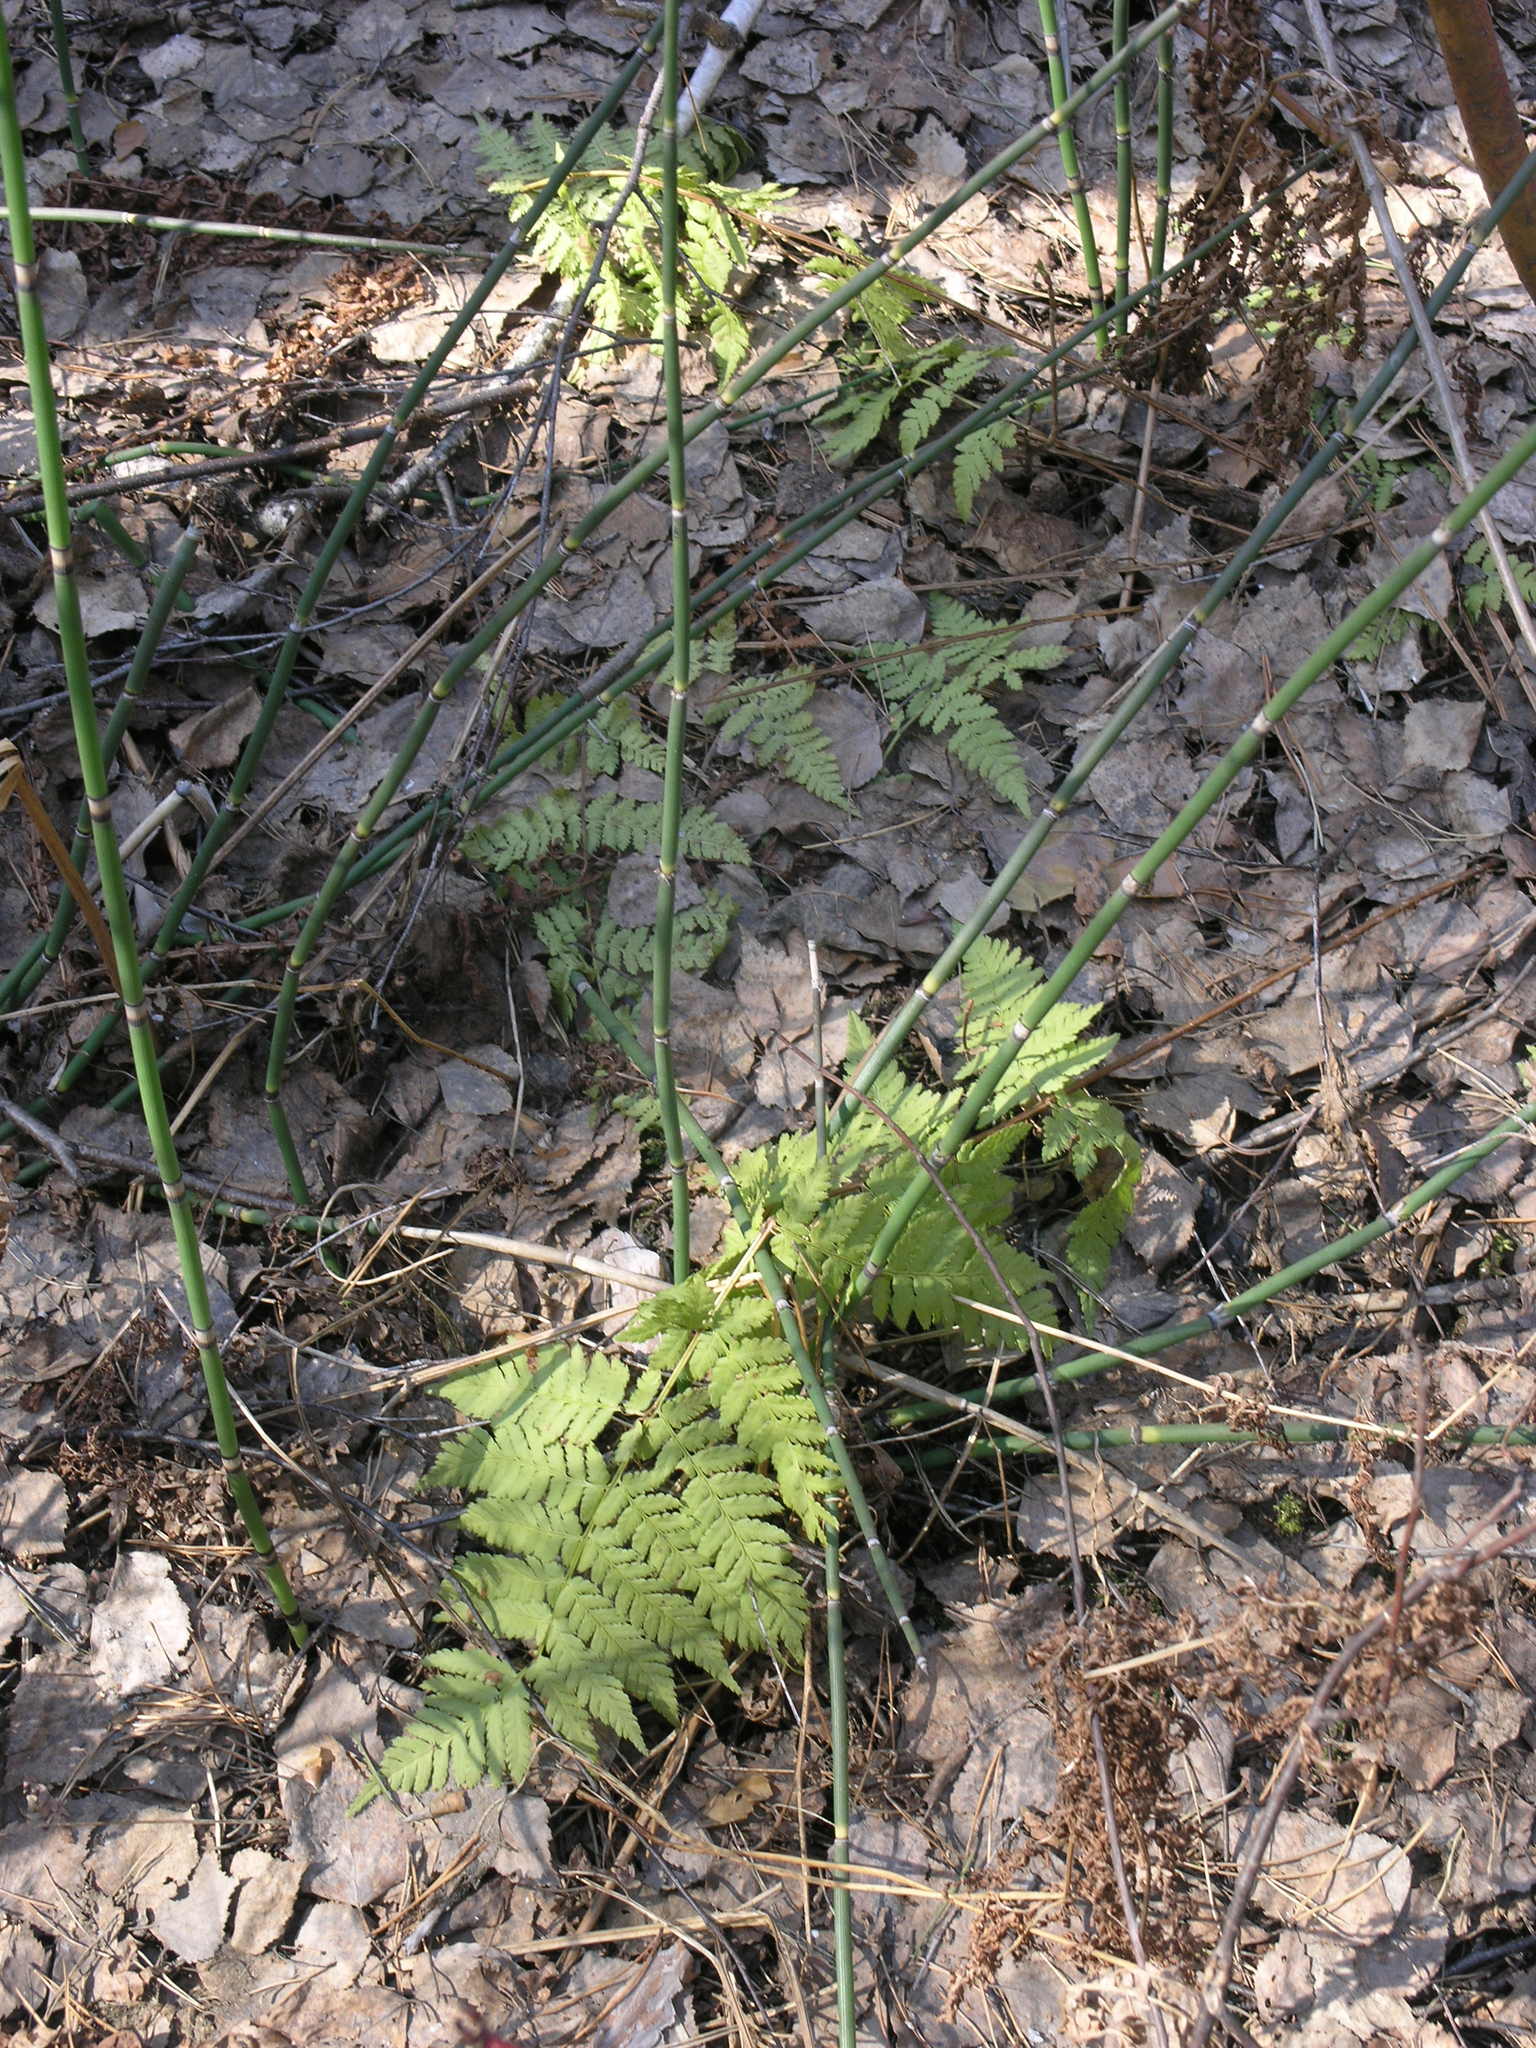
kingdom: Plantae
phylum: Tracheophyta
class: Polypodiopsida
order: Polypodiales
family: Dryopteridaceae
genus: Dryopteris
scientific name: Dryopteris carthusiana
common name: Narrow buckler-fern
